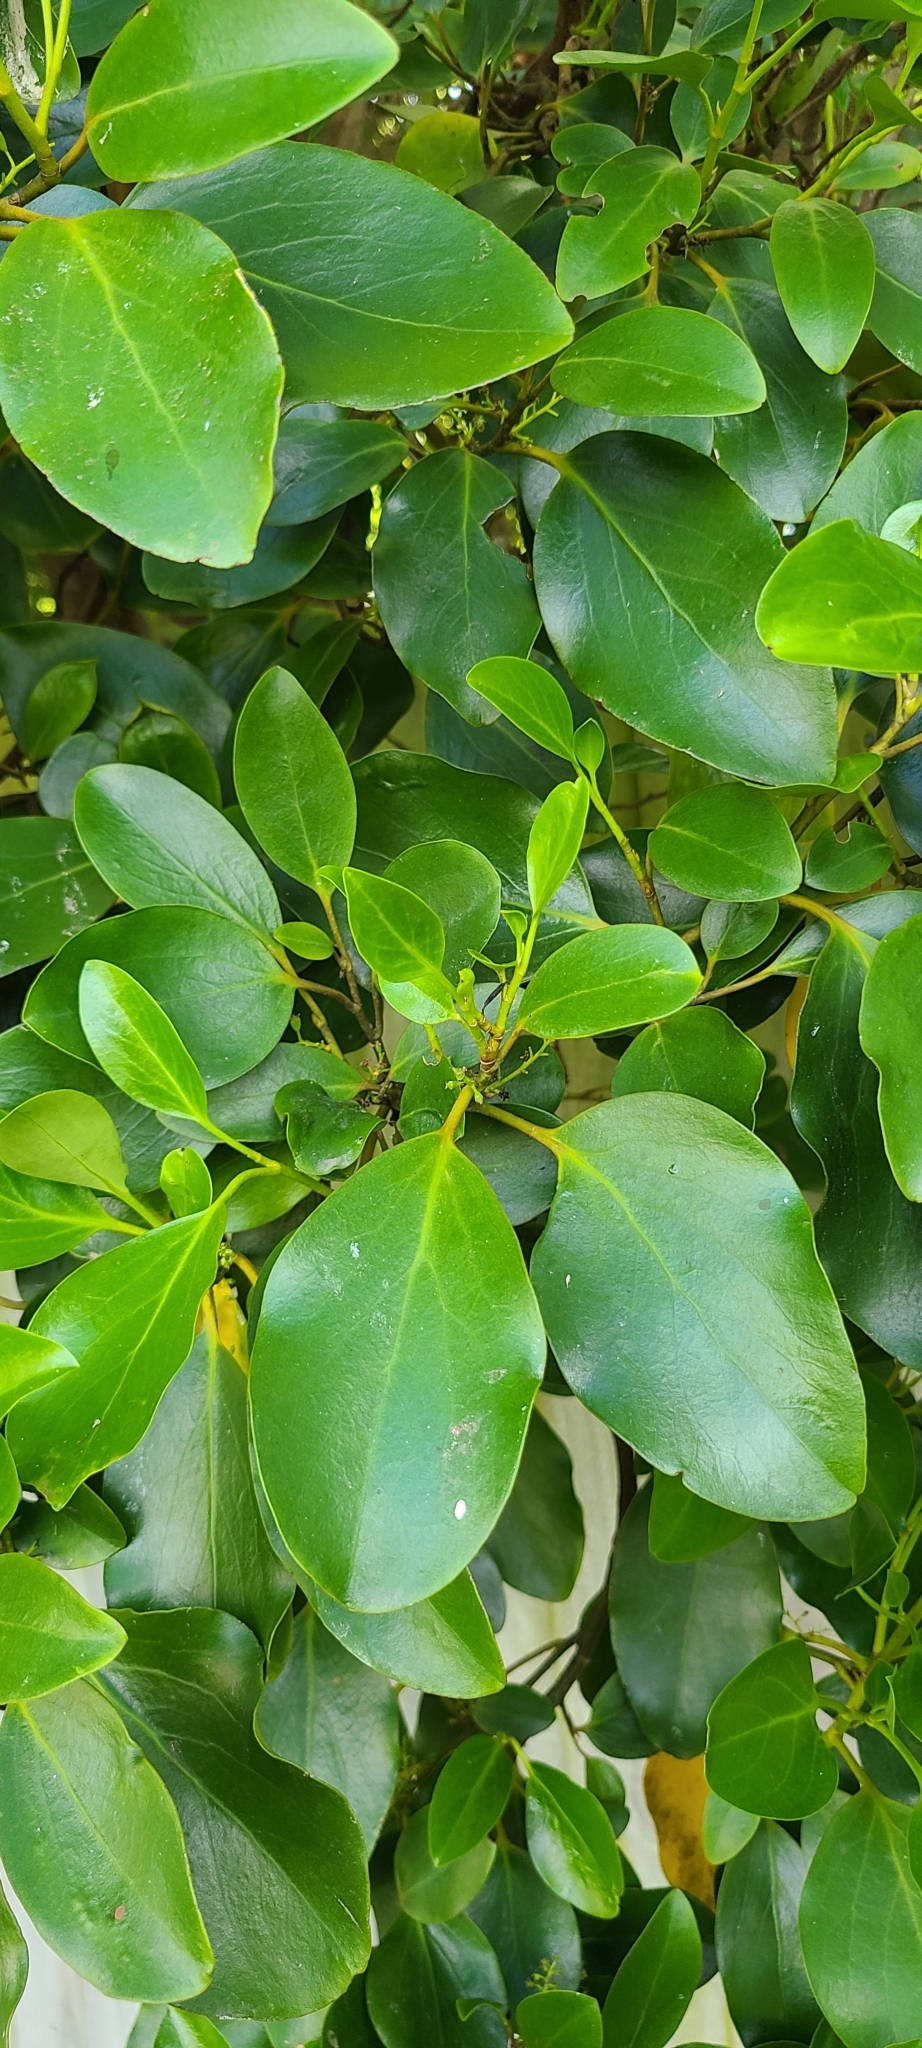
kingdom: Plantae
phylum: Tracheophyta
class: Magnoliopsida
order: Apiales
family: Griseliniaceae
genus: Griselinia
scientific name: Griselinia littoralis
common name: New zealand broadleaf
